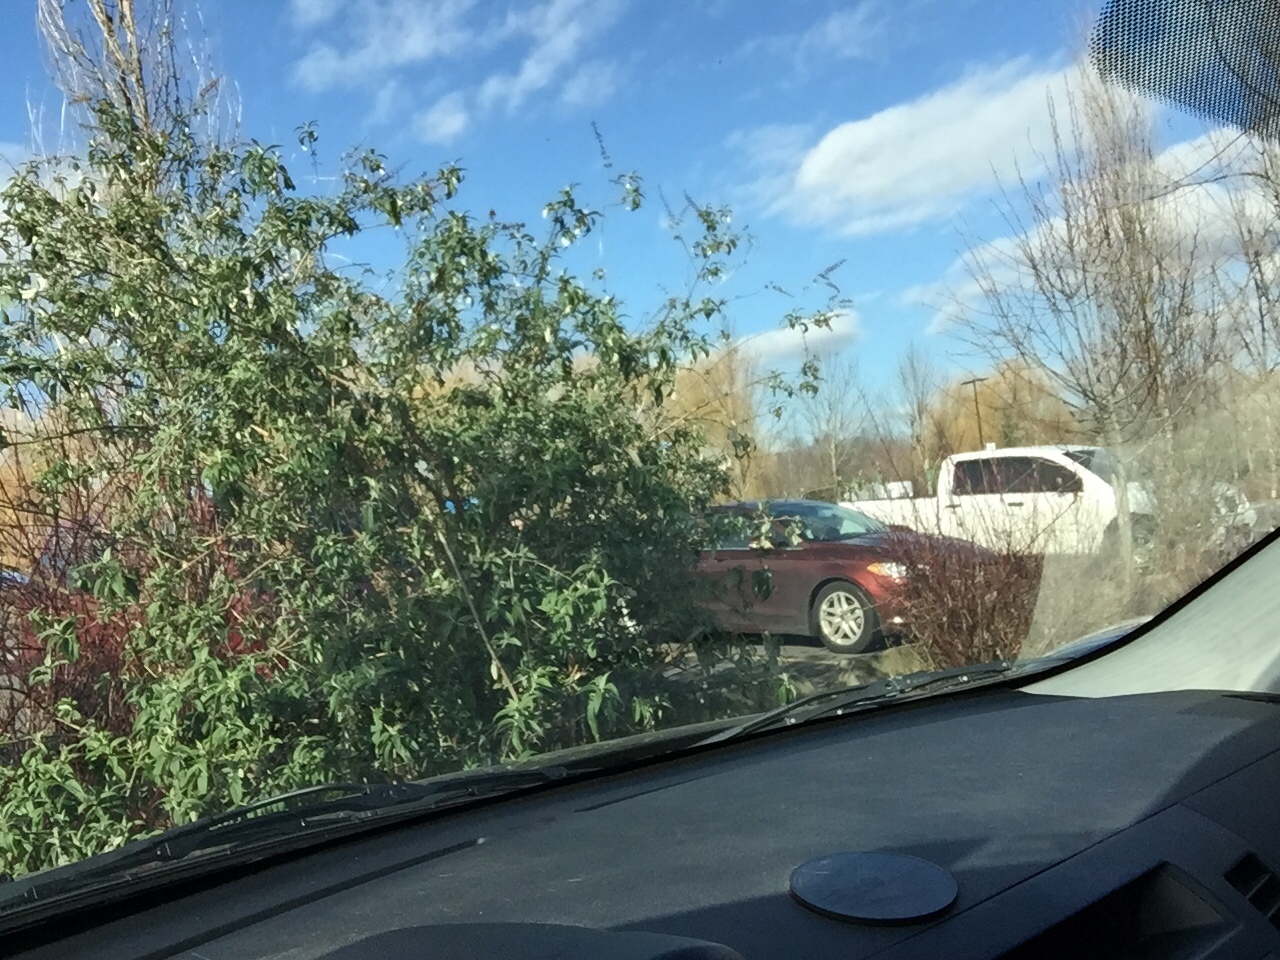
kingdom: Plantae
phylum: Tracheophyta
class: Magnoliopsida
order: Lamiales
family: Scrophulariaceae
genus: Buddleja
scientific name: Buddleja davidii
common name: Butterfly-bush
